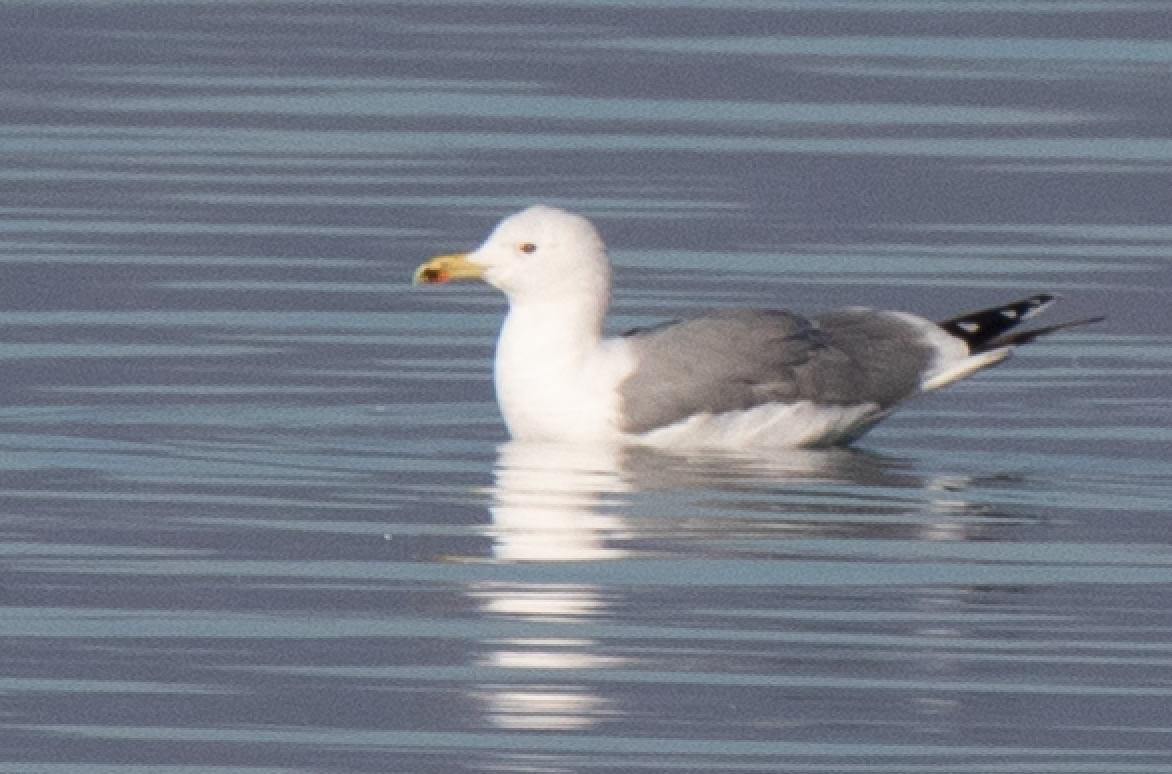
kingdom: Animalia
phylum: Chordata
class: Aves
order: Charadriiformes
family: Laridae
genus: Larus
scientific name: Larus michahellis
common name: Yellow-legged gull
